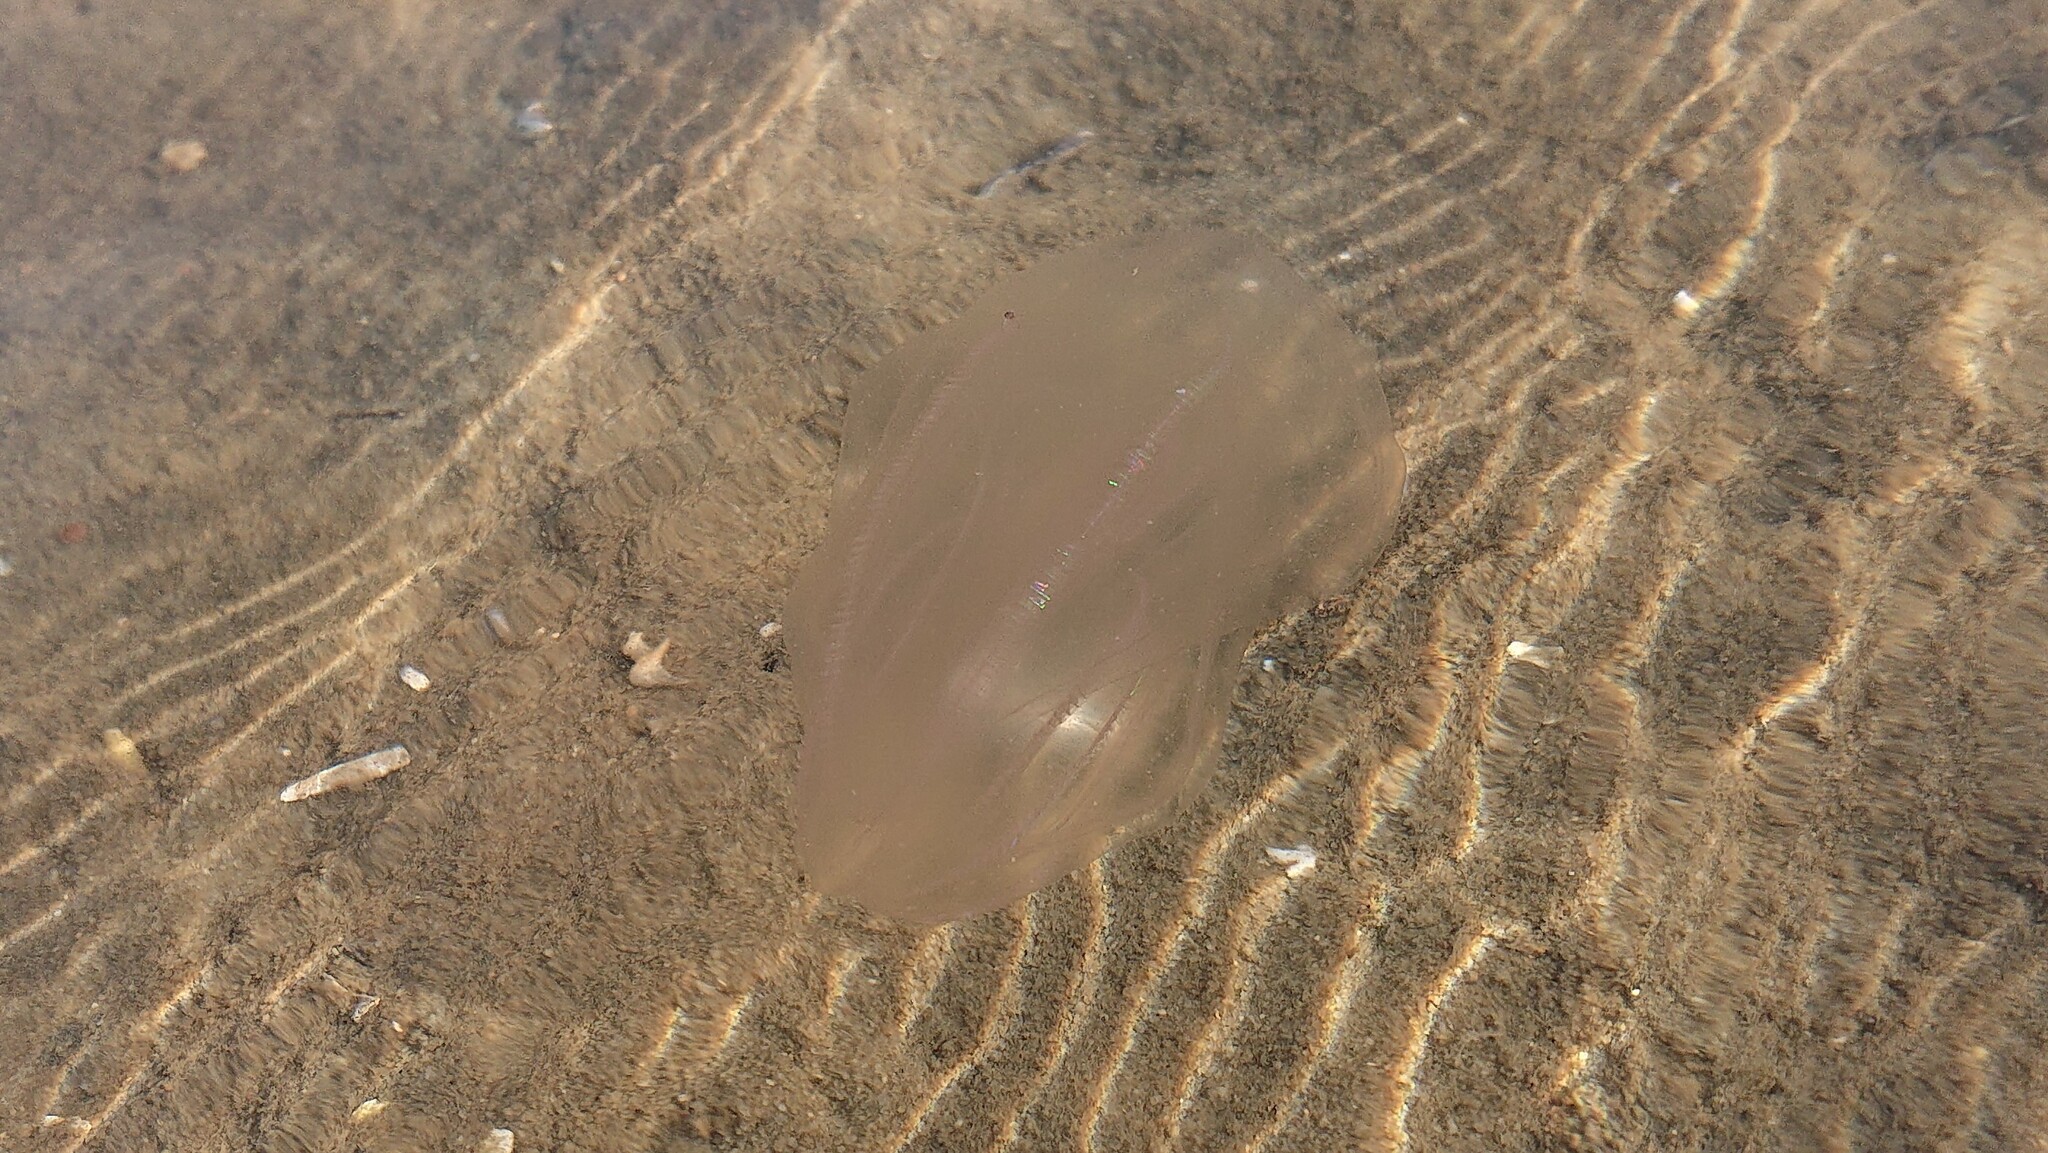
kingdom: Animalia
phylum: Ctenophora
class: Tentaculata
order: Lobata
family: Bolinopsidae
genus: Mnemiopsis
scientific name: Mnemiopsis leidyi
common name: American comb jelly
